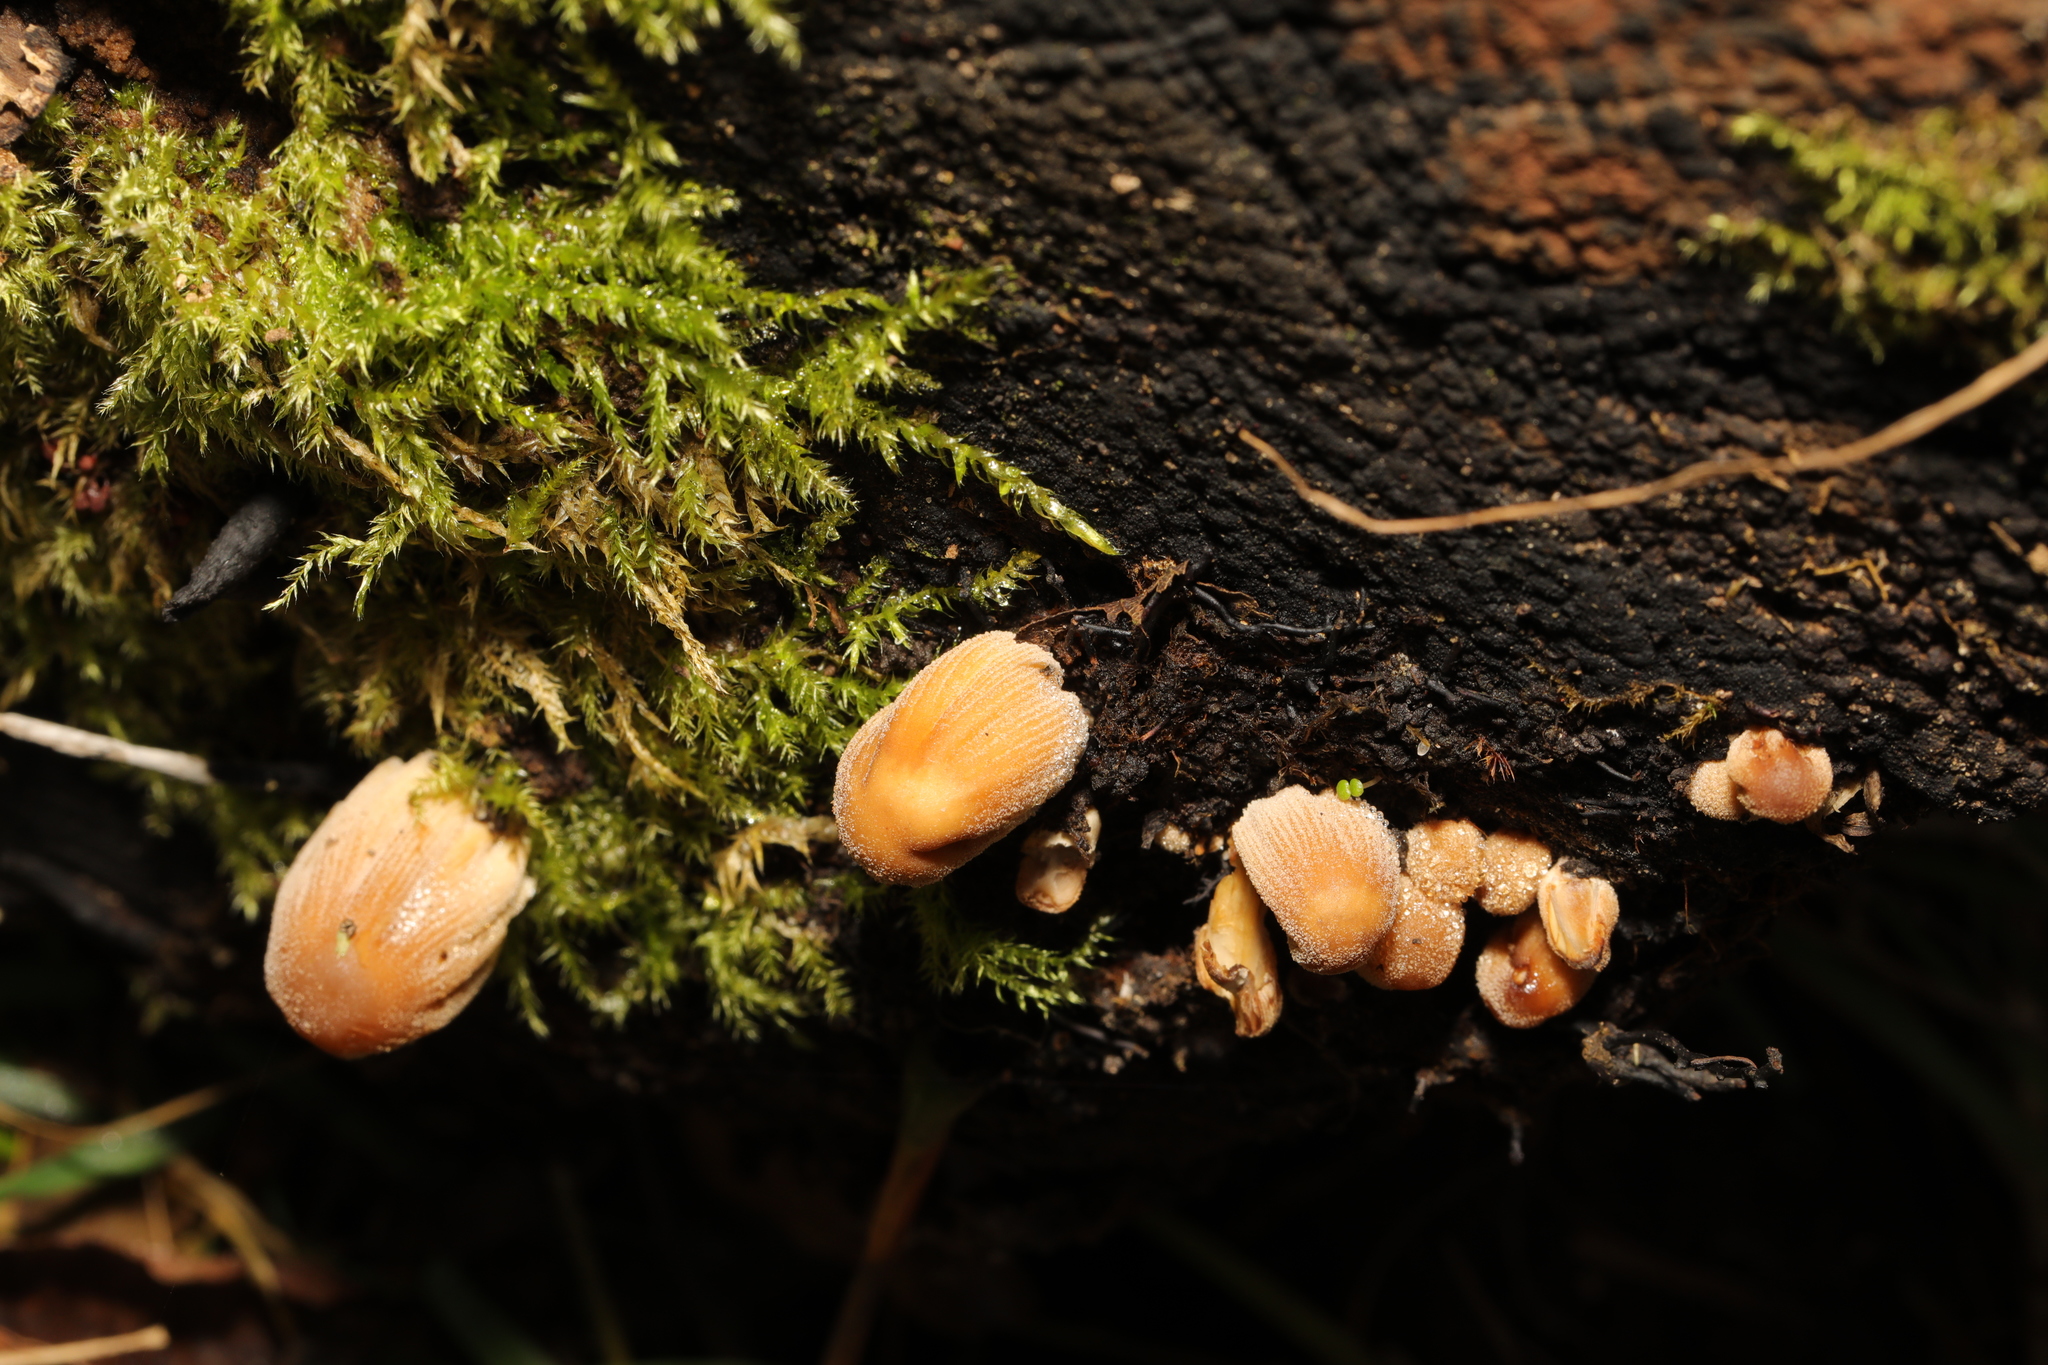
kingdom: Fungi
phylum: Basidiomycota
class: Agaricomycetes
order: Agaricales
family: Psathyrellaceae
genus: Coprinellus
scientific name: Coprinellus micaceus
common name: Glistening ink-cap
